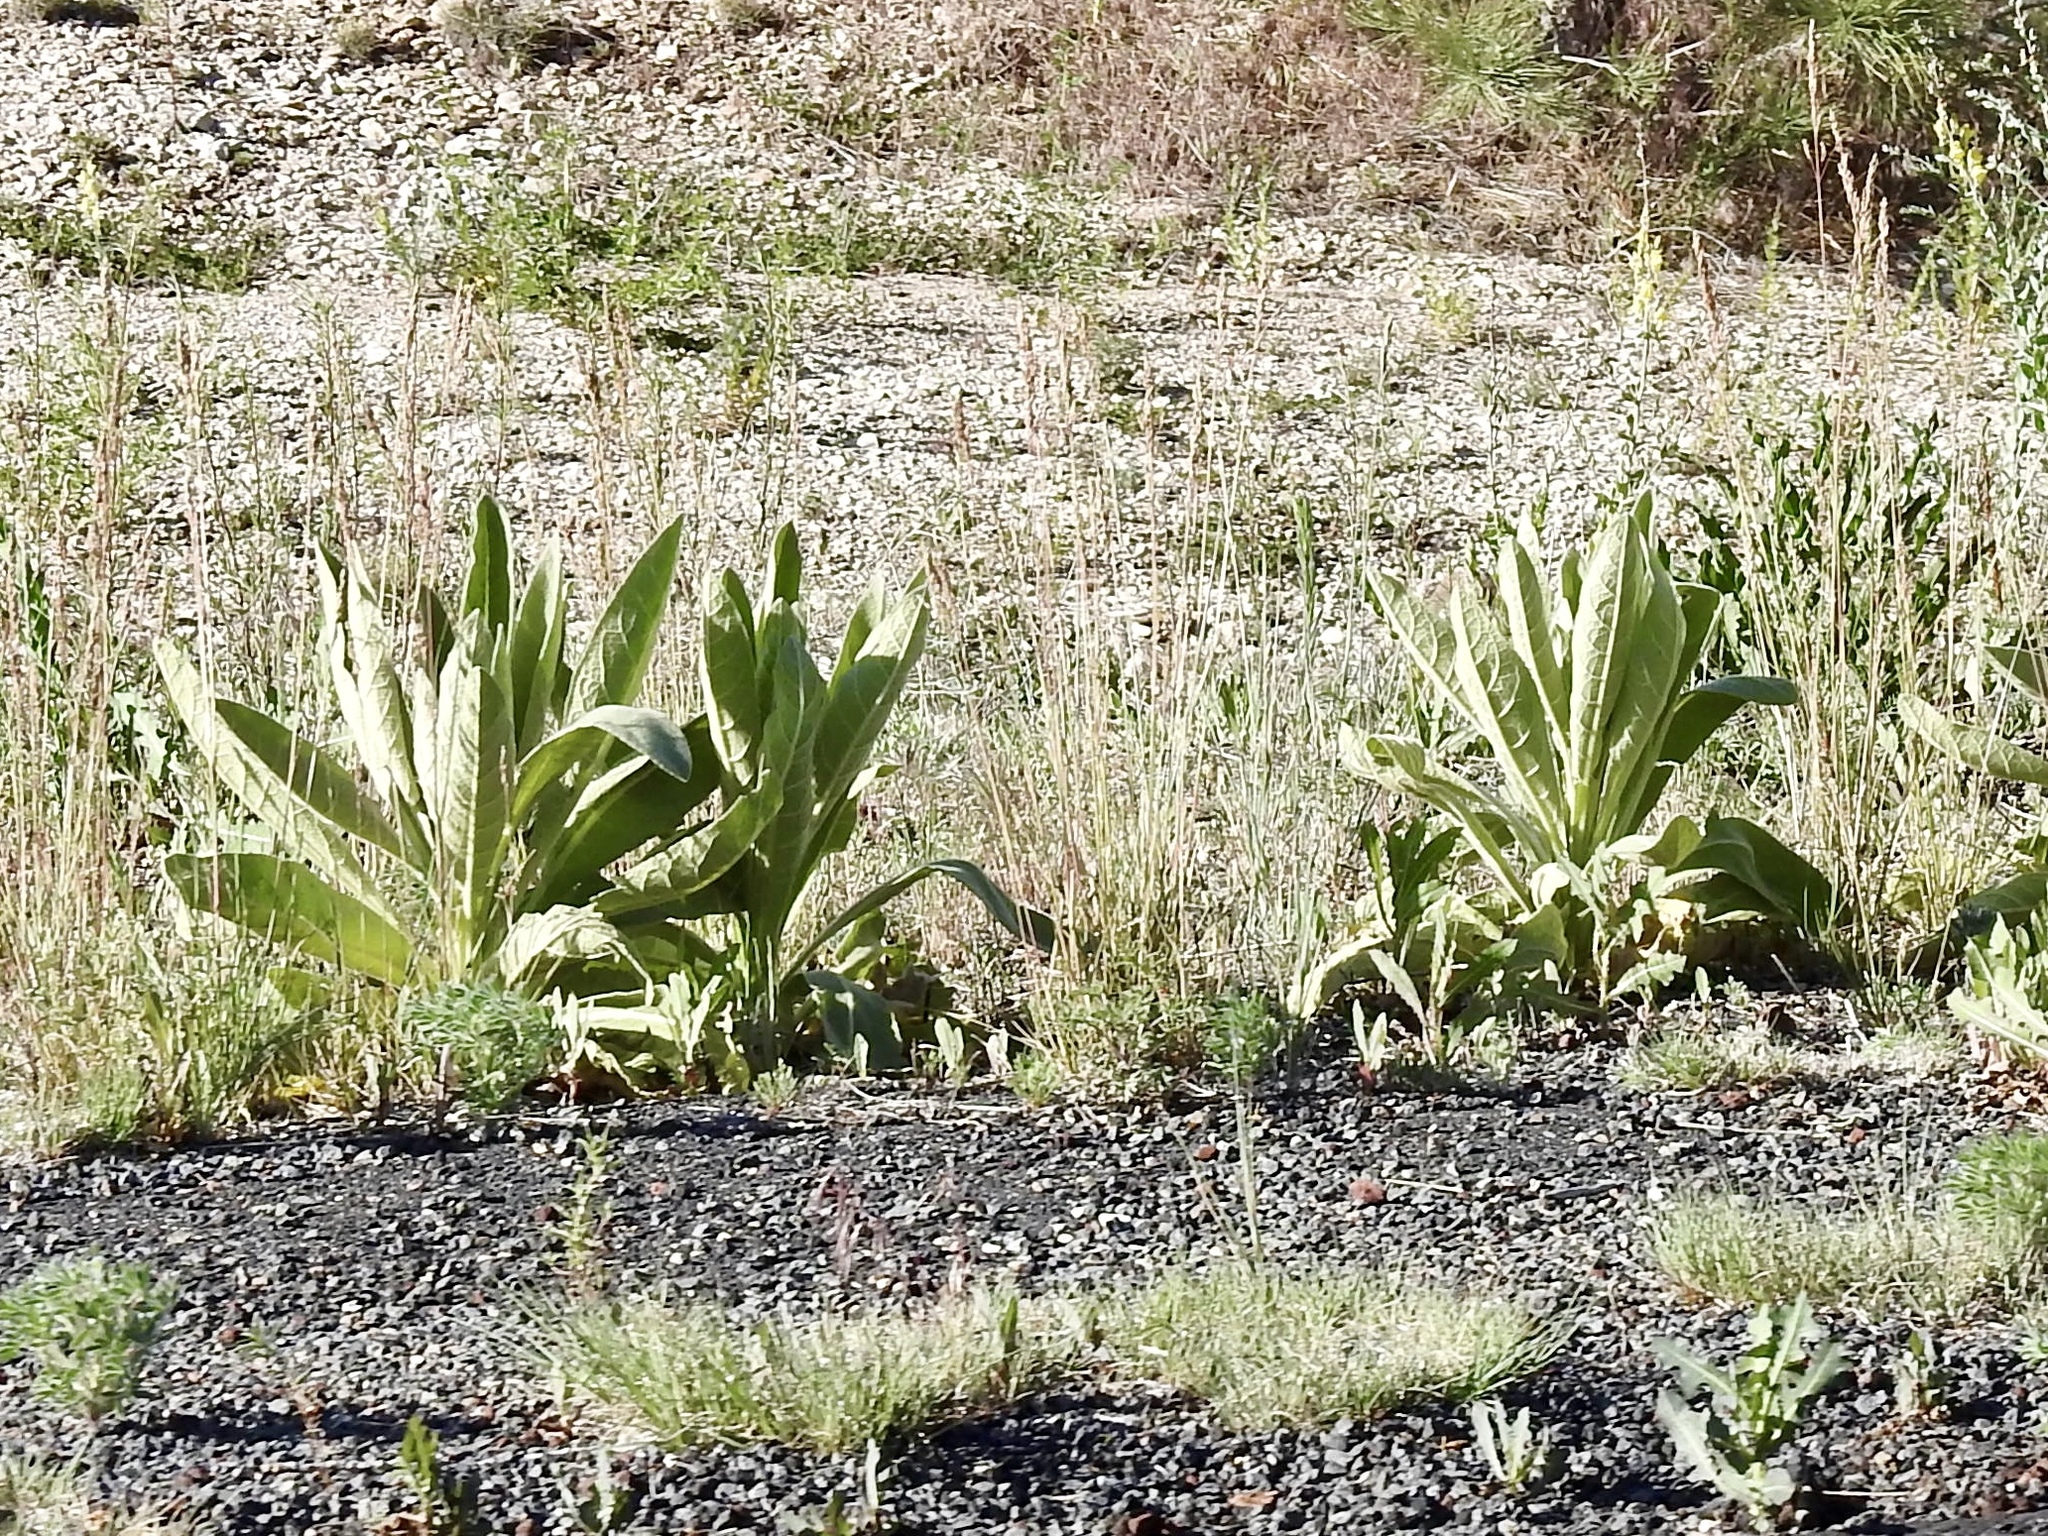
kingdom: Plantae
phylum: Tracheophyta
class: Magnoliopsida
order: Lamiales
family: Scrophulariaceae
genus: Verbascum
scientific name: Verbascum thapsus
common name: Common mullein
